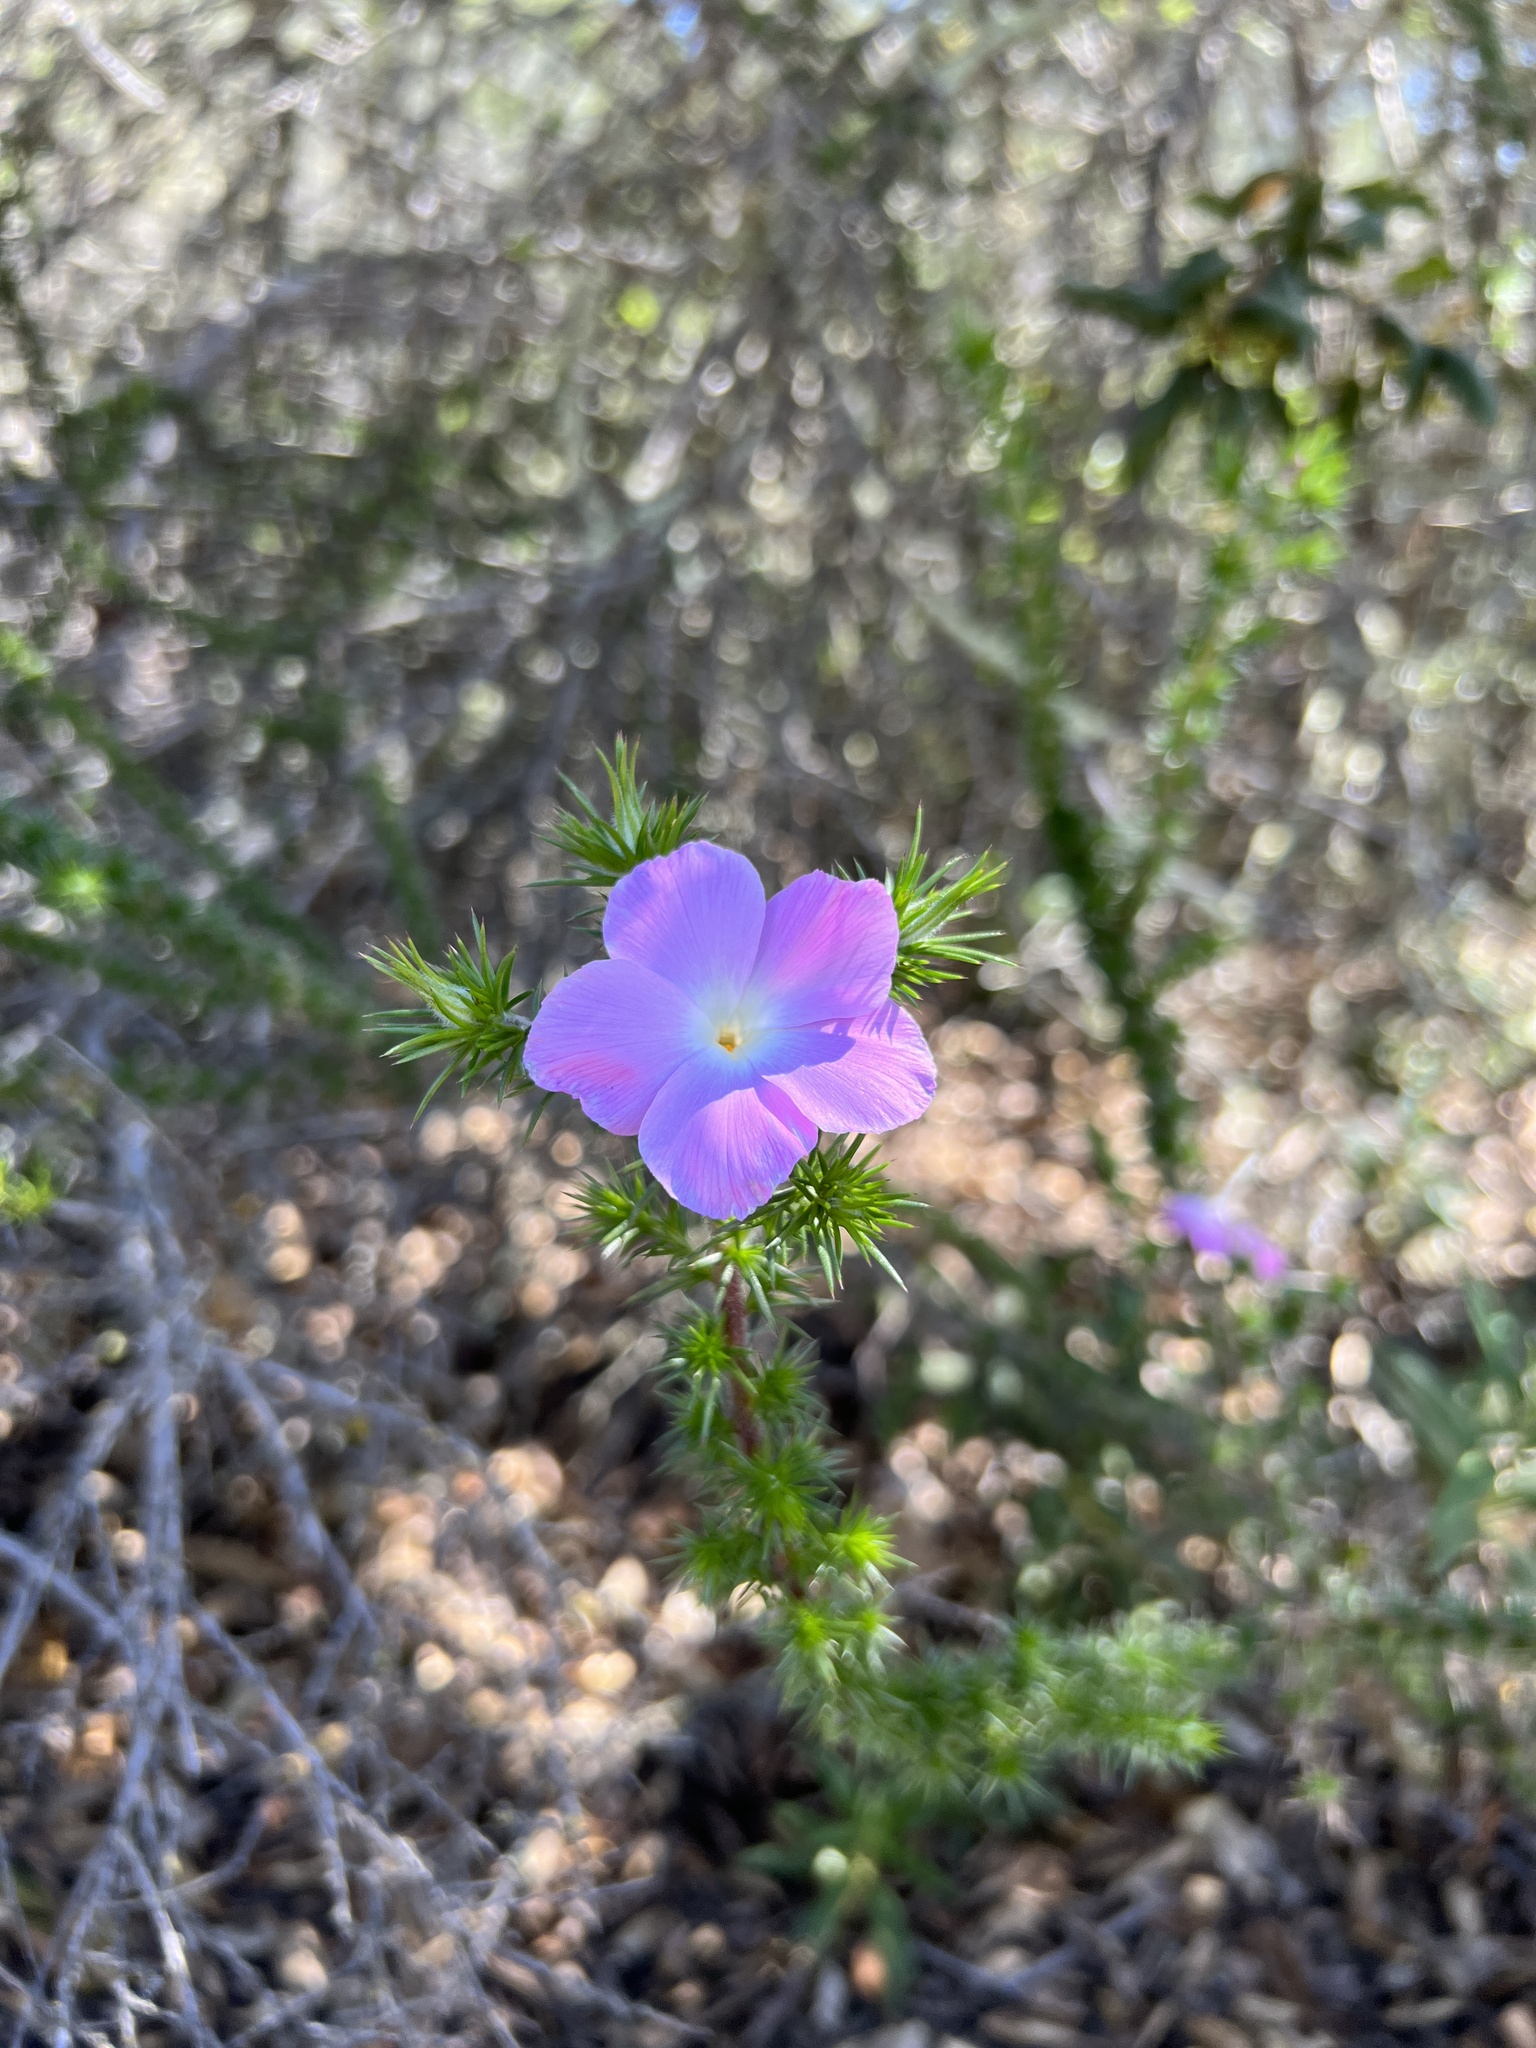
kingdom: Plantae
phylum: Tracheophyta
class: Magnoliopsida
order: Ericales
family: Polemoniaceae
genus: Linanthus
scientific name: Linanthus californicus
